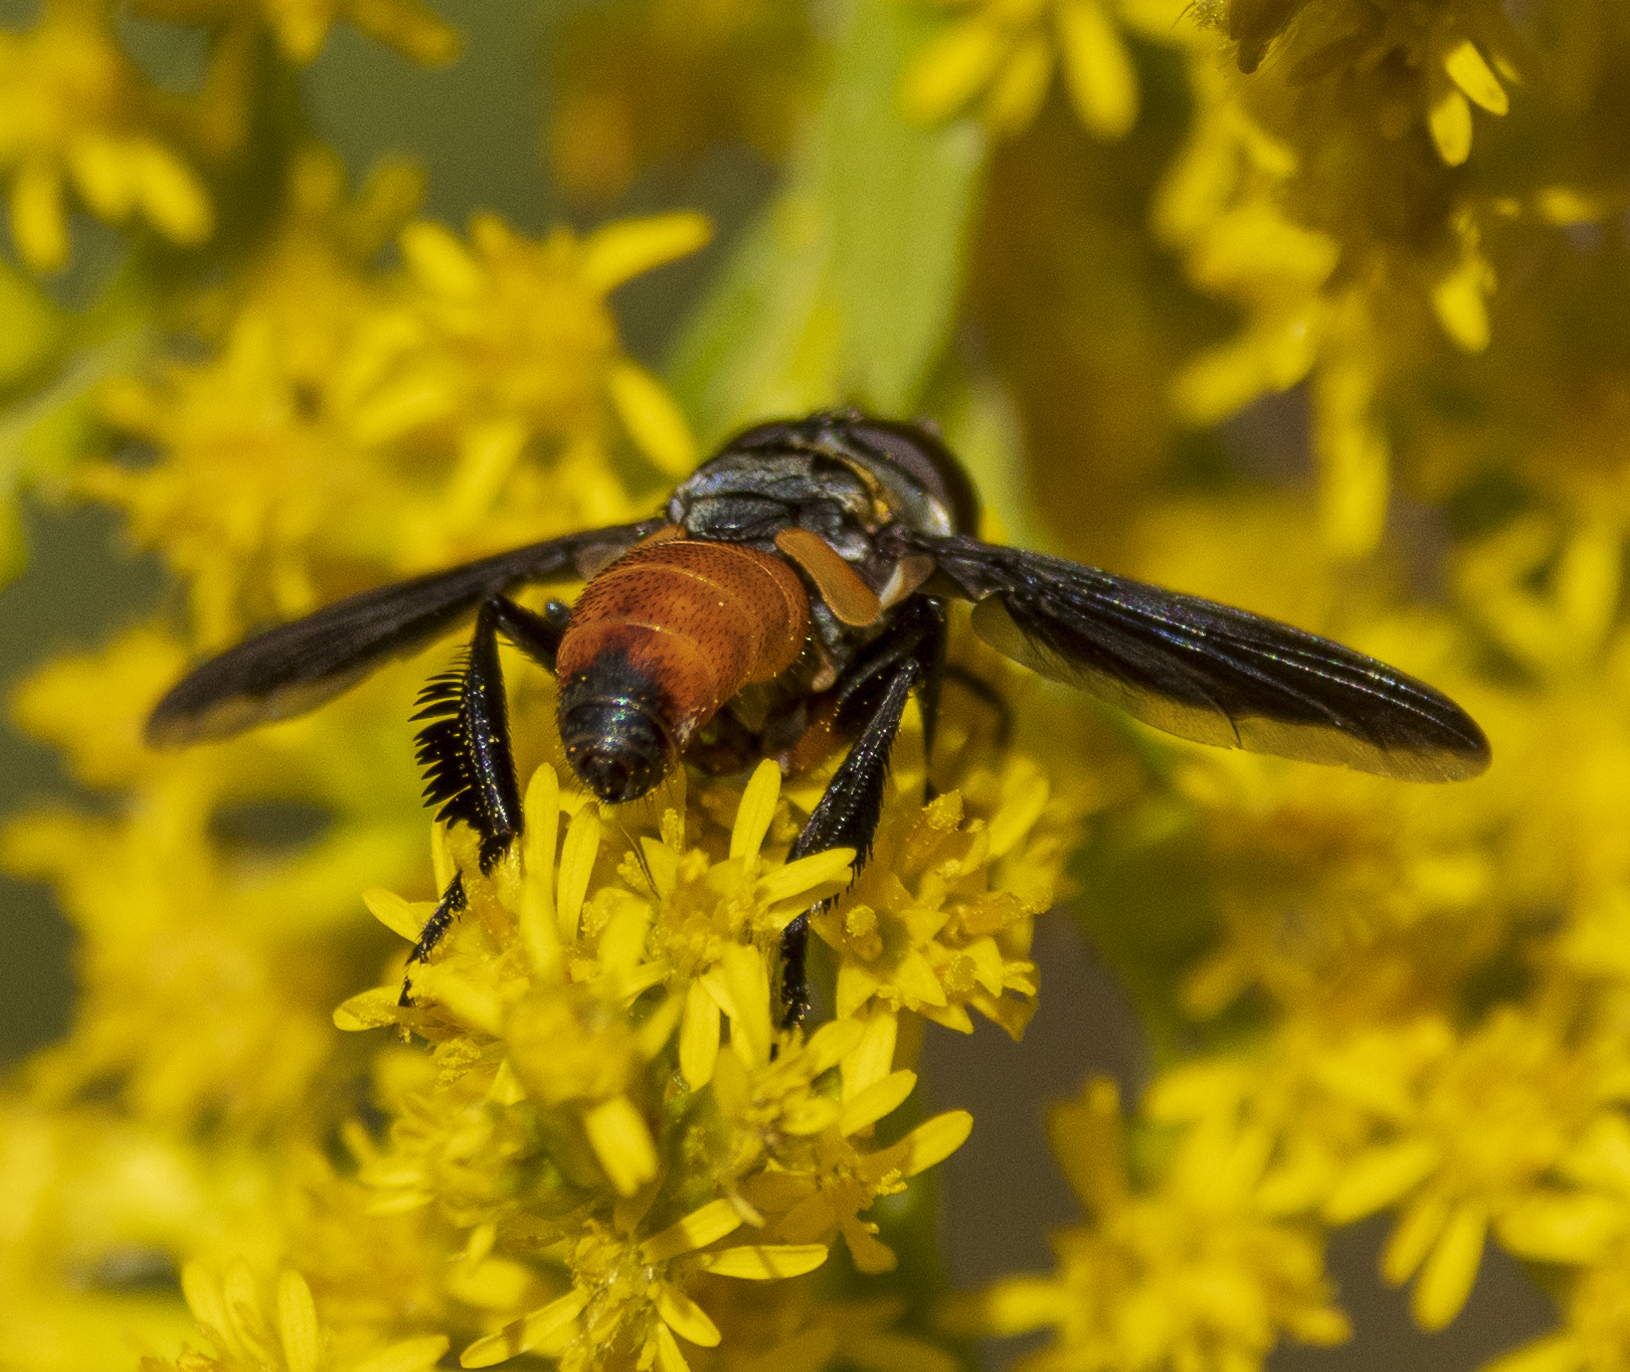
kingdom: Animalia
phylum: Arthropoda
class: Insecta
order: Diptera
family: Tachinidae
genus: Trichopoda
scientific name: Trichopoda pennipes
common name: Tachinid fly
